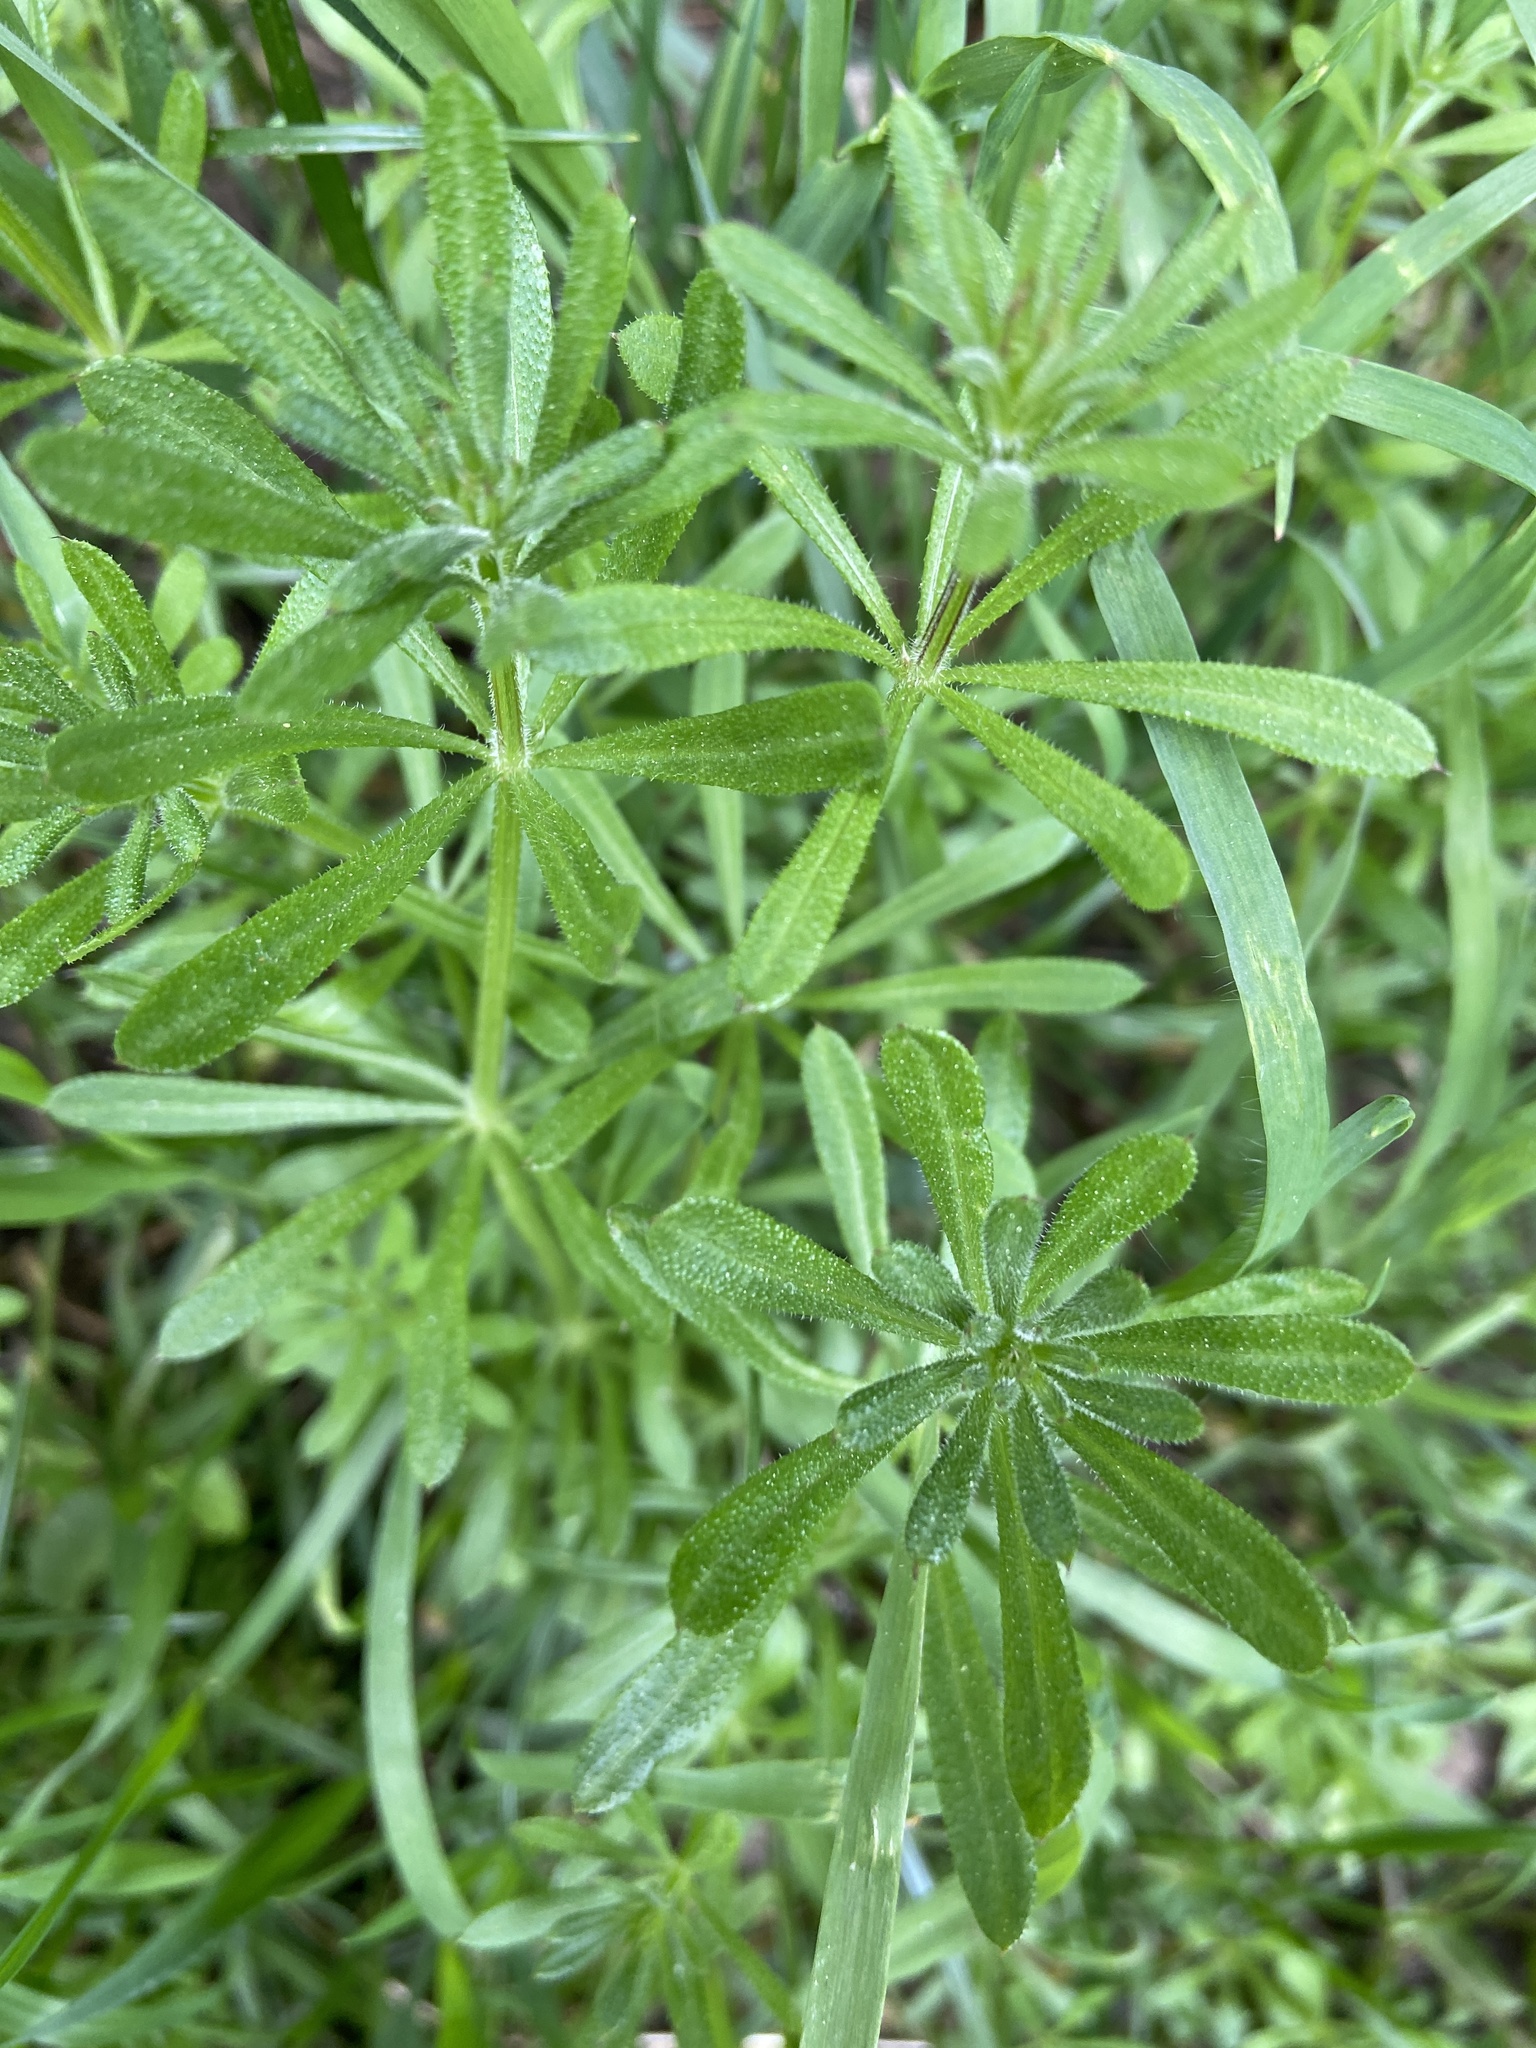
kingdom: Plantae
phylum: Tracheophyta
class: Magnoliopsida
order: Gentianales
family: Rubiaceae
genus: Galium
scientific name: Galium aparine
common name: Cleavers
